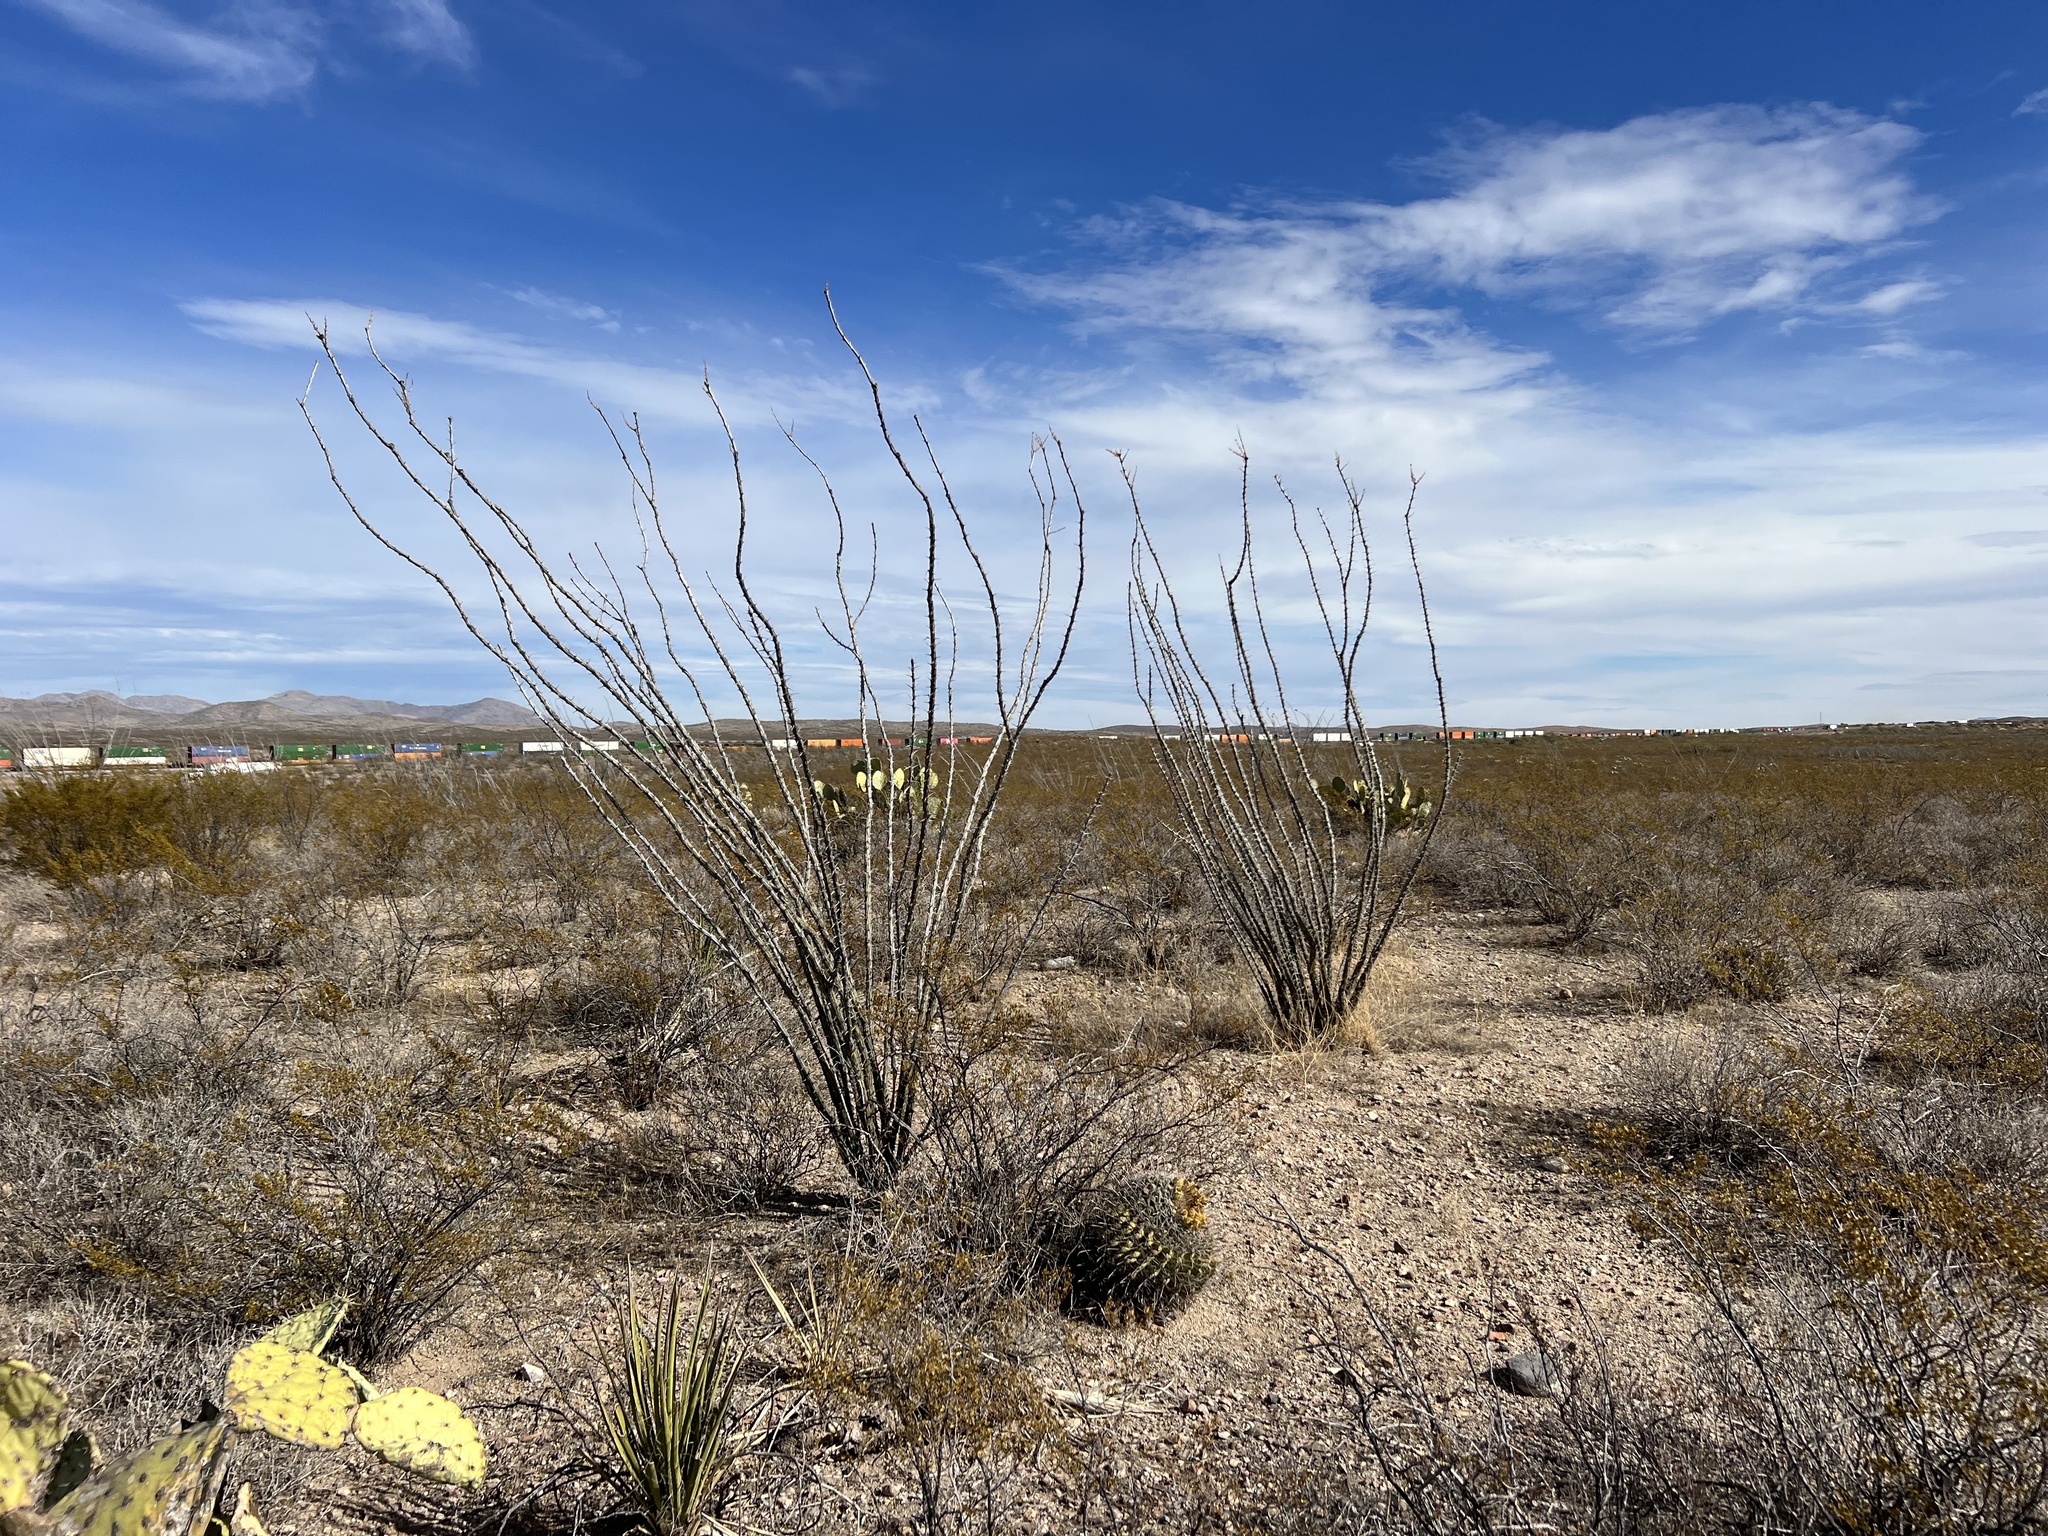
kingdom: Plantae
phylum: Tracheophyta
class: Magnoliopsida
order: Ericales
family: Fouquieriaceae
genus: Fouquieria
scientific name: Fouquieria splendens
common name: Vine-cactus
